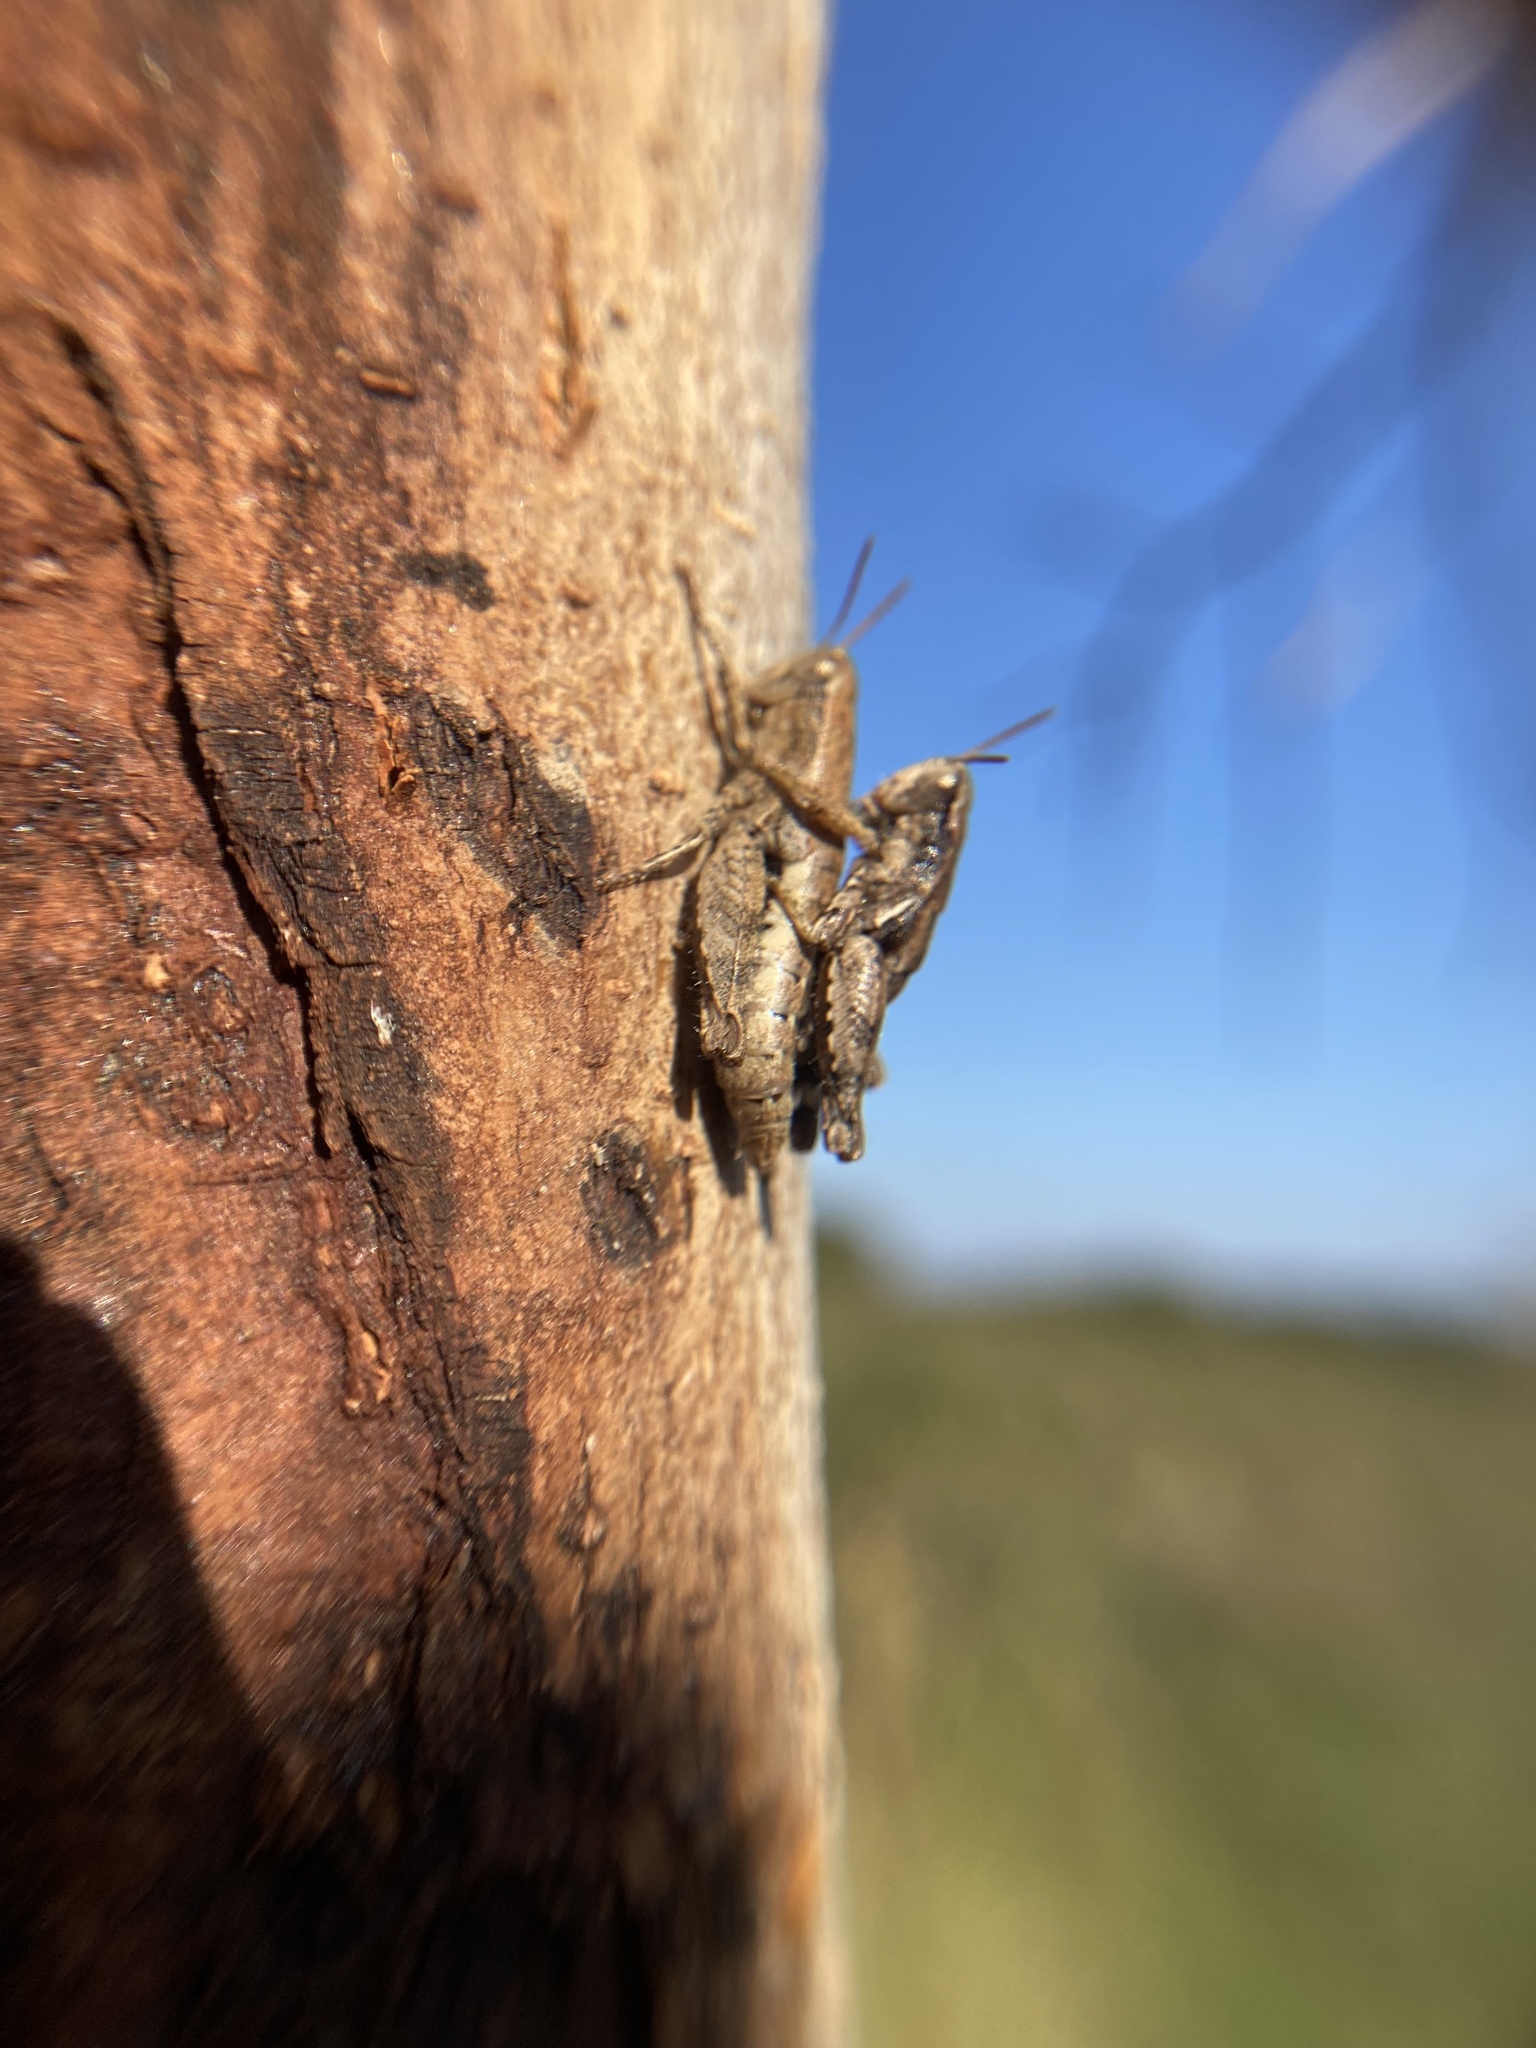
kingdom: Animalia
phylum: Arthropoda
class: Insecta
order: Orthoptera
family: Acrididae
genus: Pezotettix
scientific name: Pezotettix giornae
